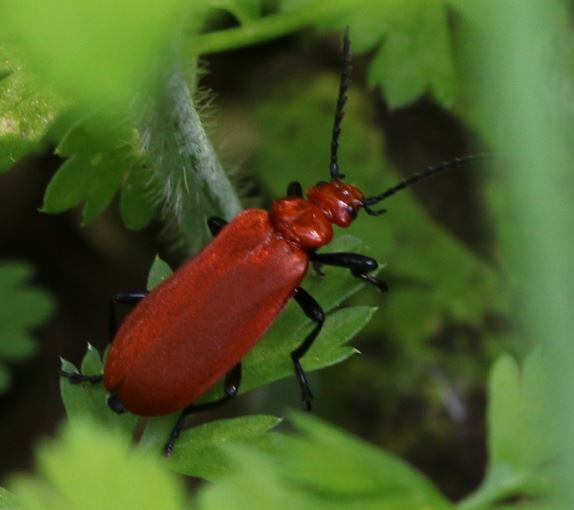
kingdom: Animalia
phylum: Arthropoda
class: Insecta
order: Coleoptera
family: Pyrochroidae
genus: Pyrochroa
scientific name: Pyrochroa serraticornis
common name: Red-headed cardinal beetle
